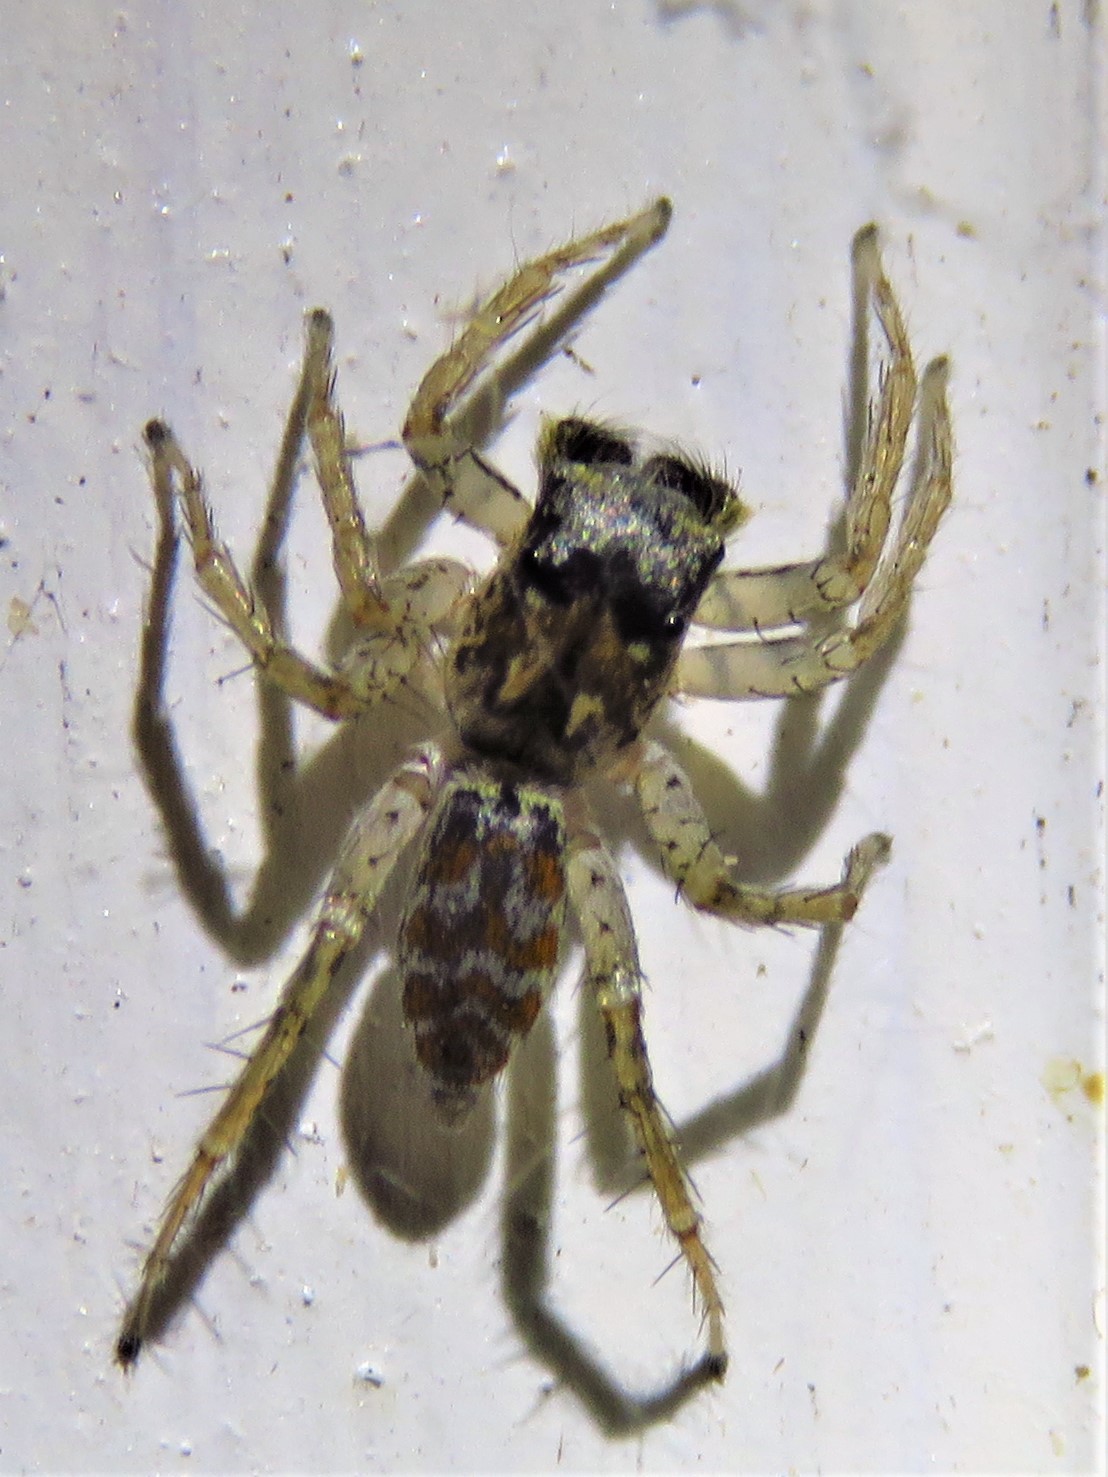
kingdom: Animalia
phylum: Arthropoda
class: Arachnida
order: Araneae
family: Salticidae
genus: Maevia
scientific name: Maevia inclemens
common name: Dimorphic jumper
